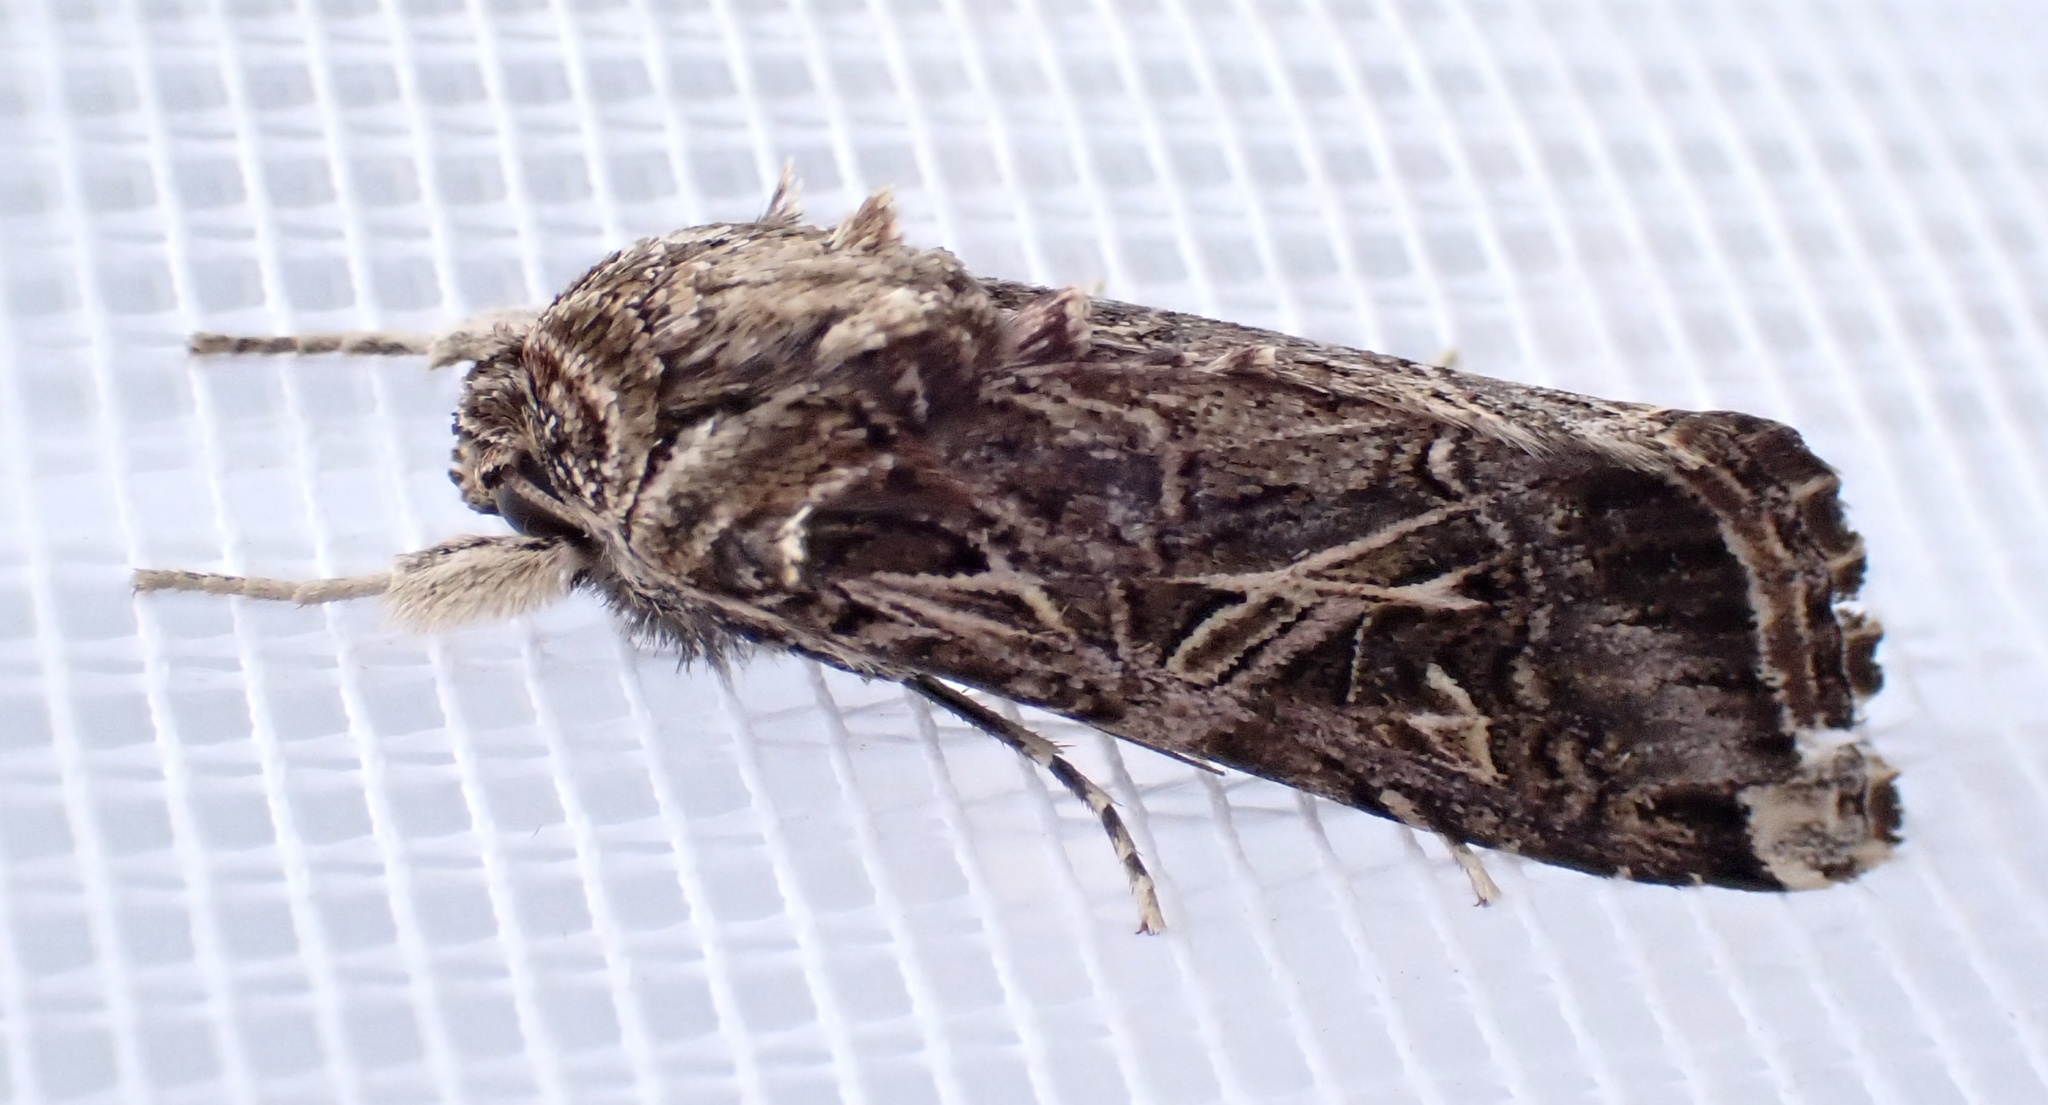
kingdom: Animalia
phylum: Arthropoda
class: Insecta
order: Lepidoptera
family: Noctuidae
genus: Spodoptera
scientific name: Spodoptera litura
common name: Asian cotton leafworm
